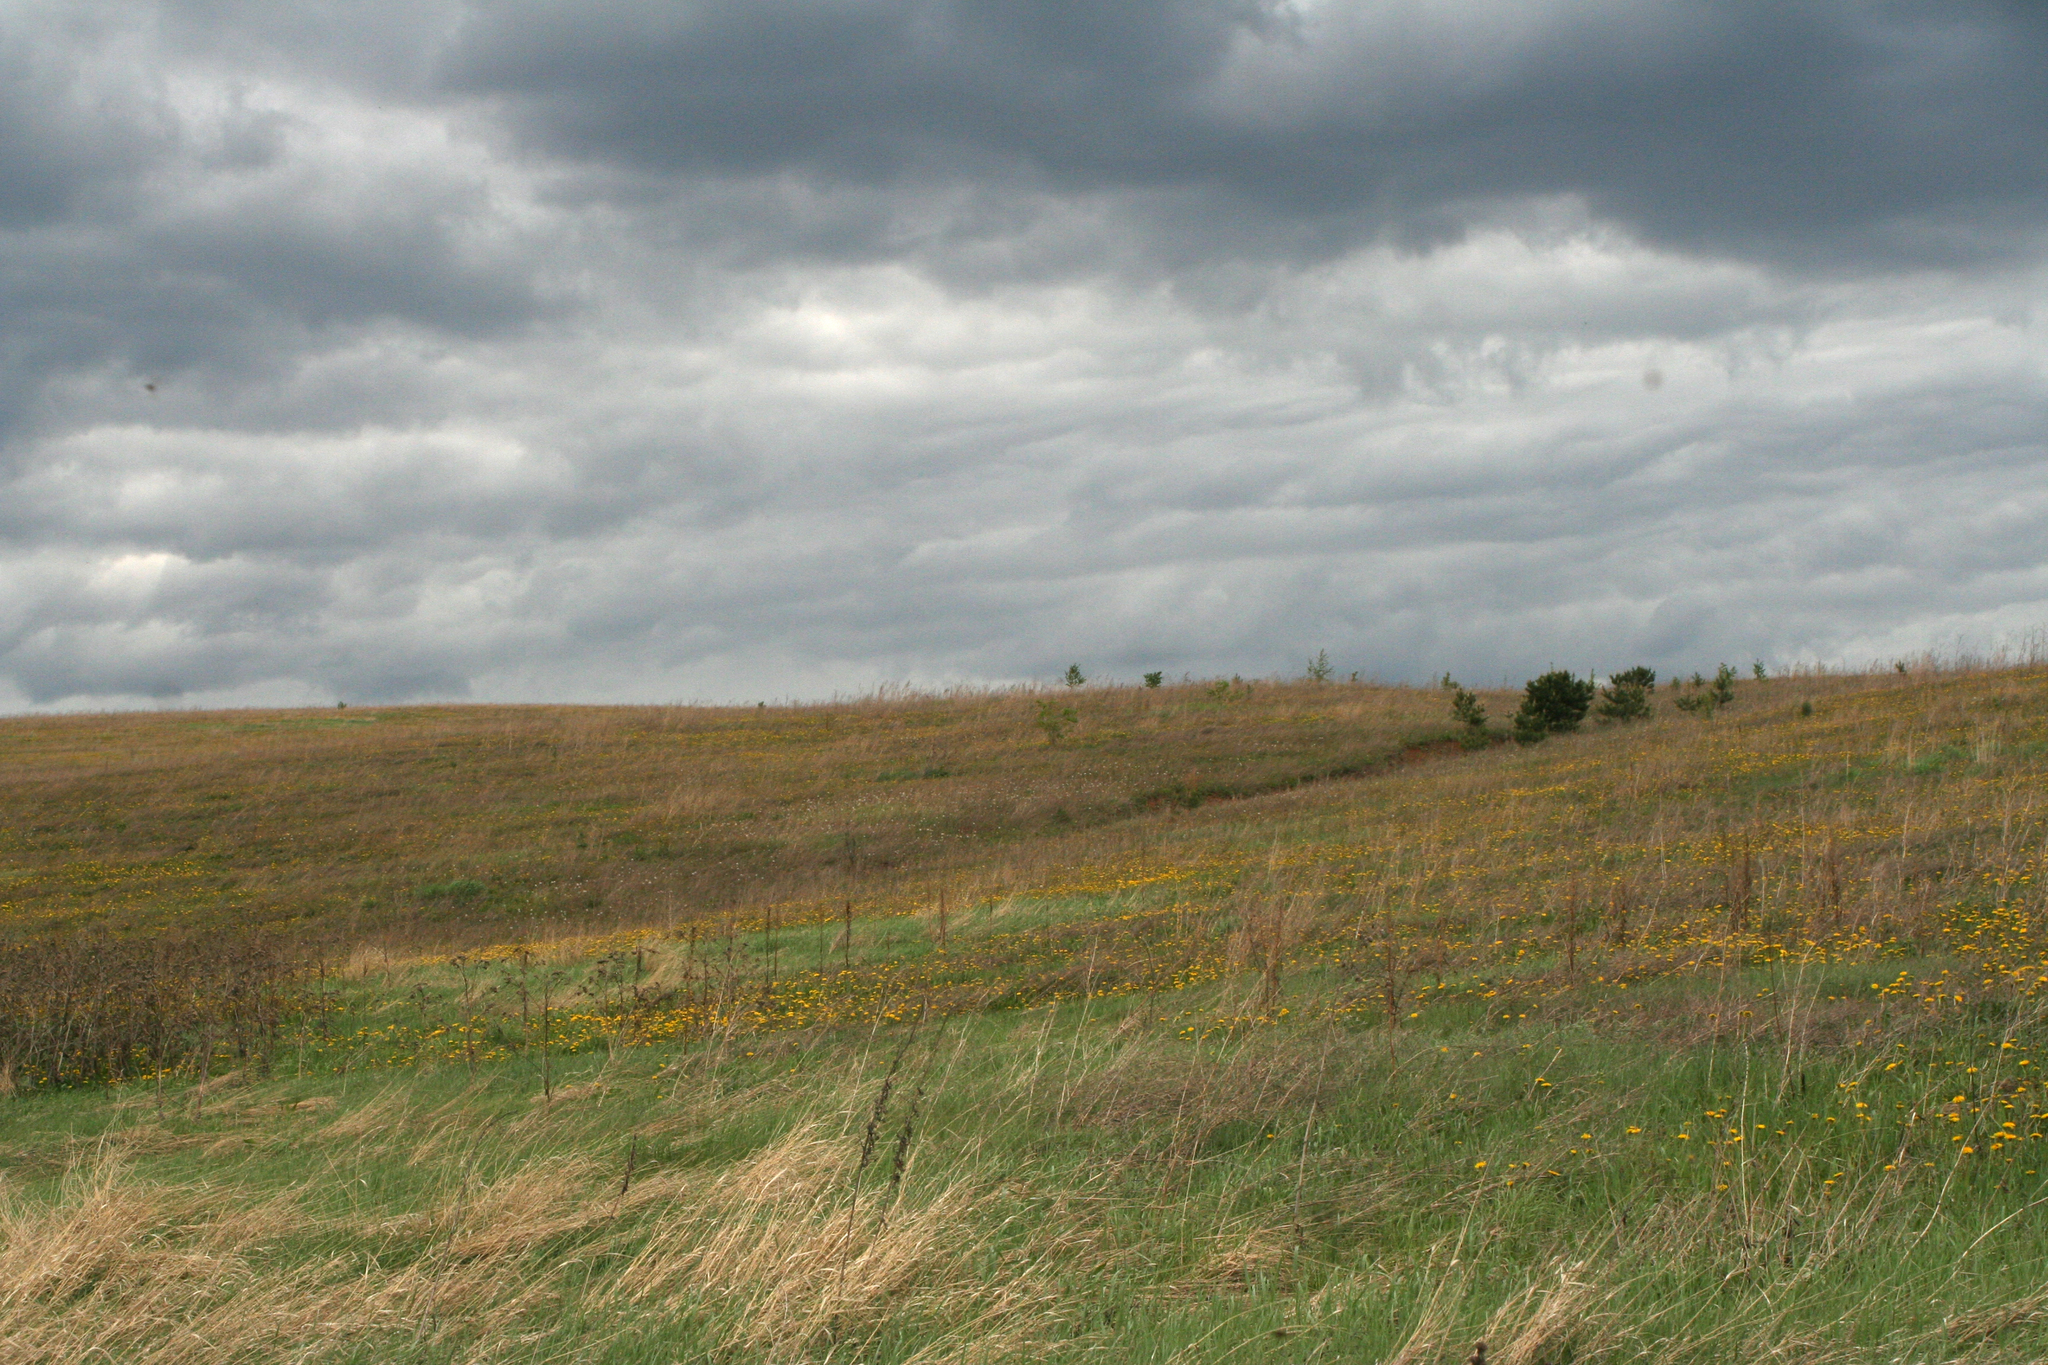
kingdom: Plantae
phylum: Tracheophyta
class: Magnoliopsida
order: Asterales
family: Asteraceae
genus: Taraxacum
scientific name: Taraxacum officinale
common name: Common dandelion
